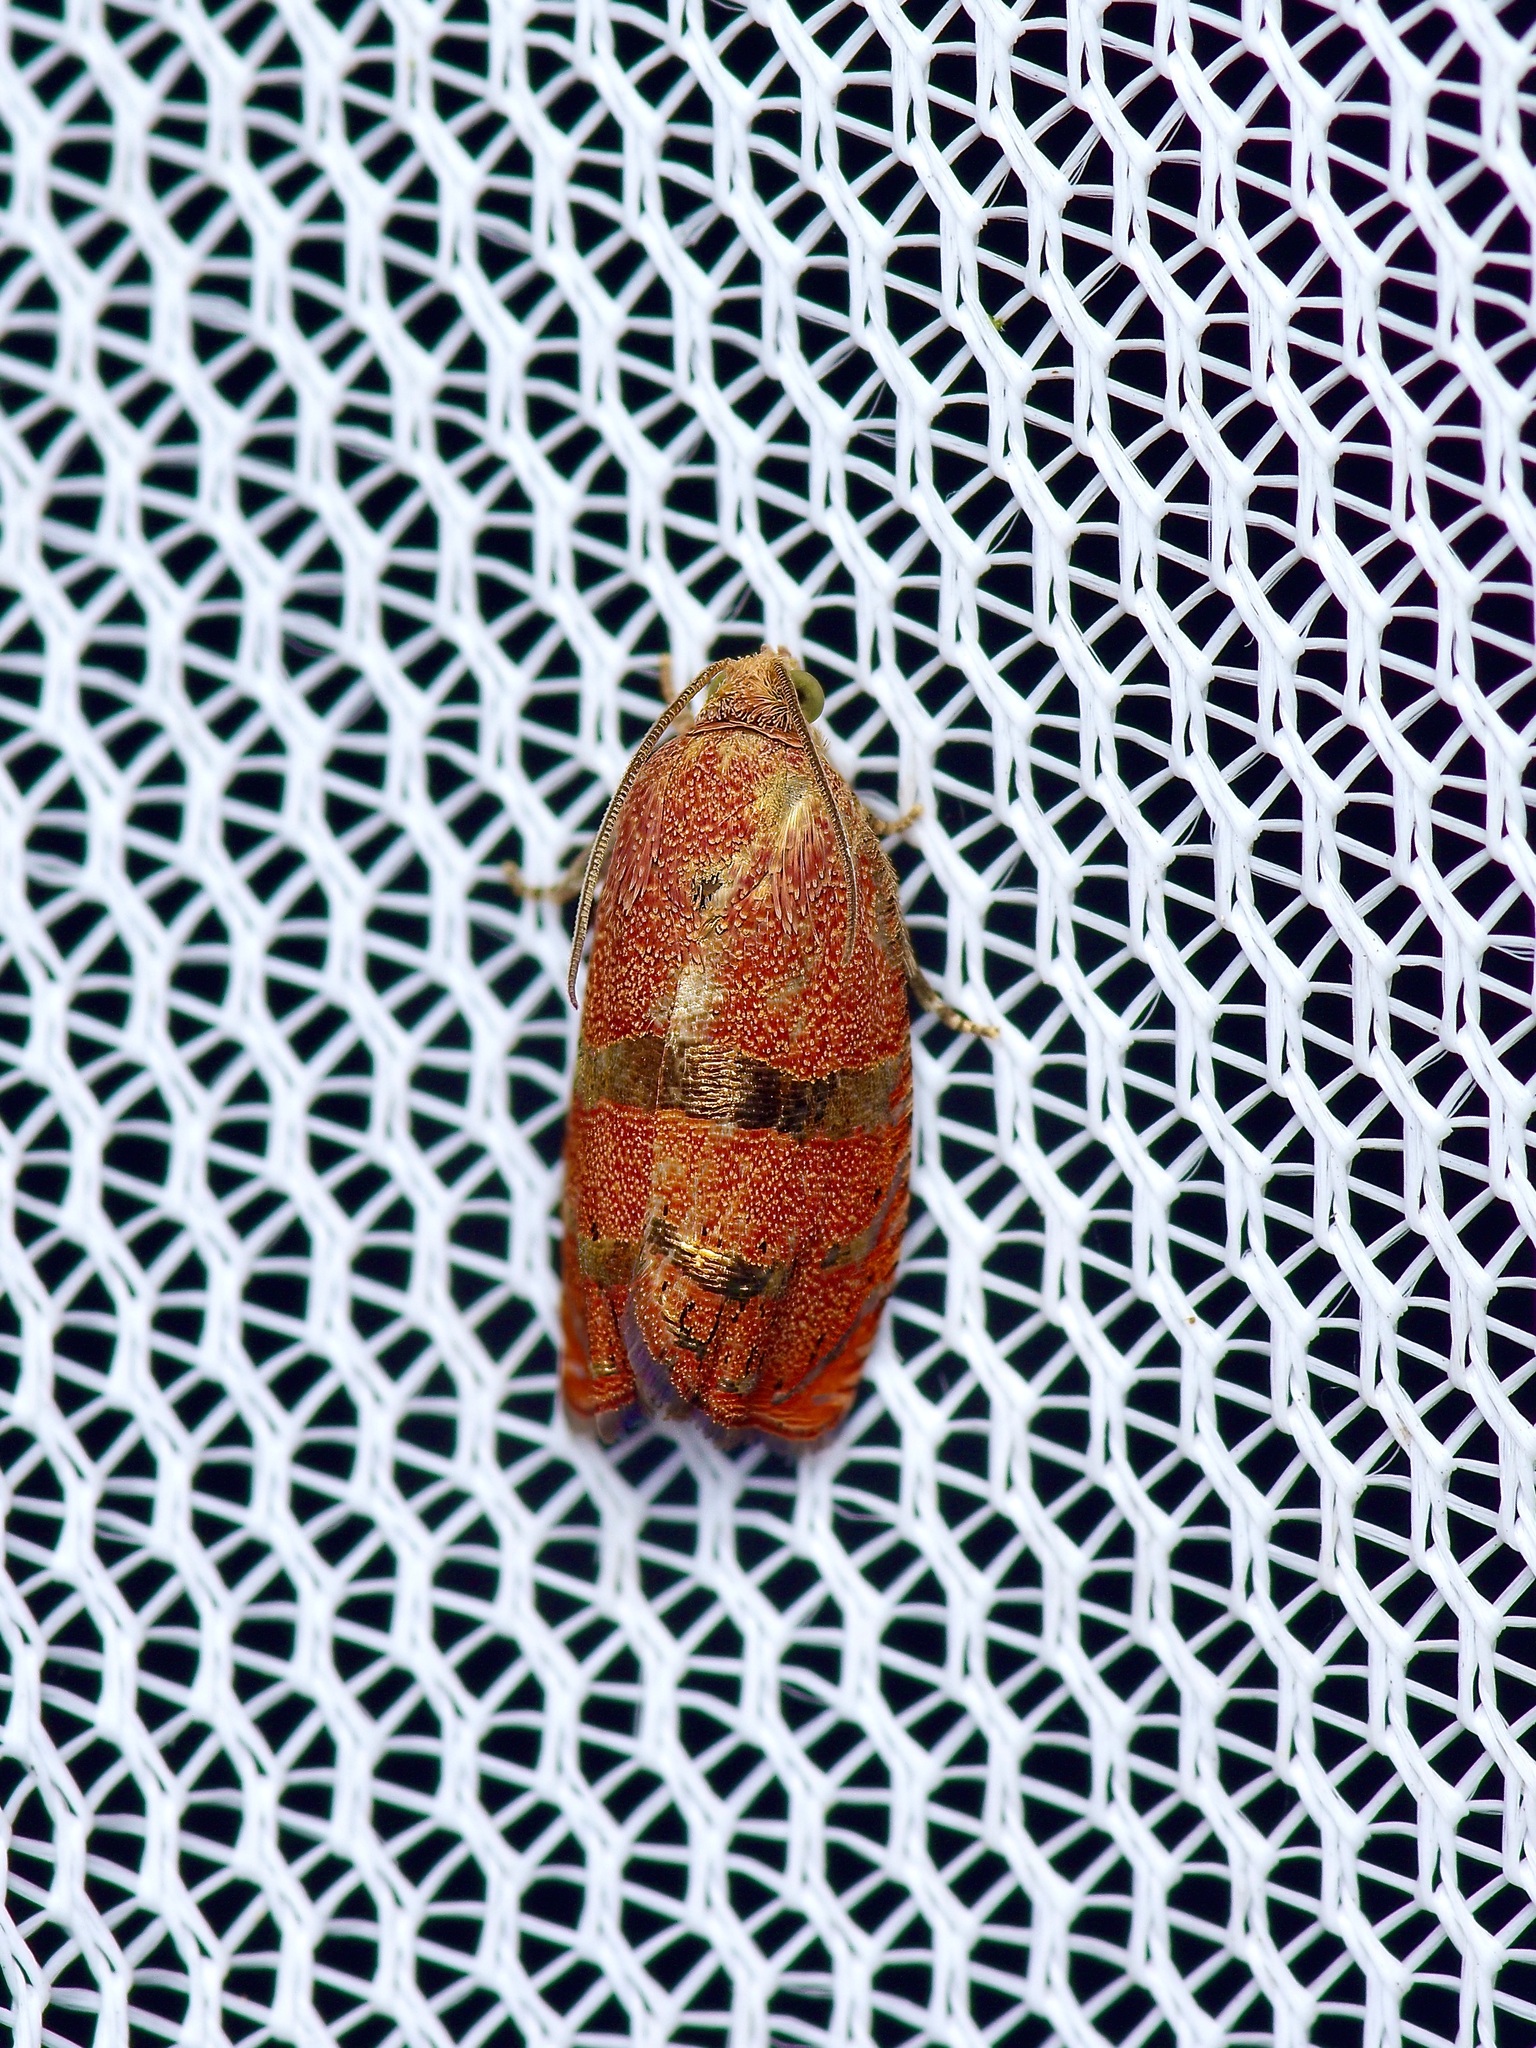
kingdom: Animalia
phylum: Arthropoda
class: Insecta
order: Lepidoptera
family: Tortricidae
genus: Cydia
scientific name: Cydia latiferreana
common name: Filbertworm moth
